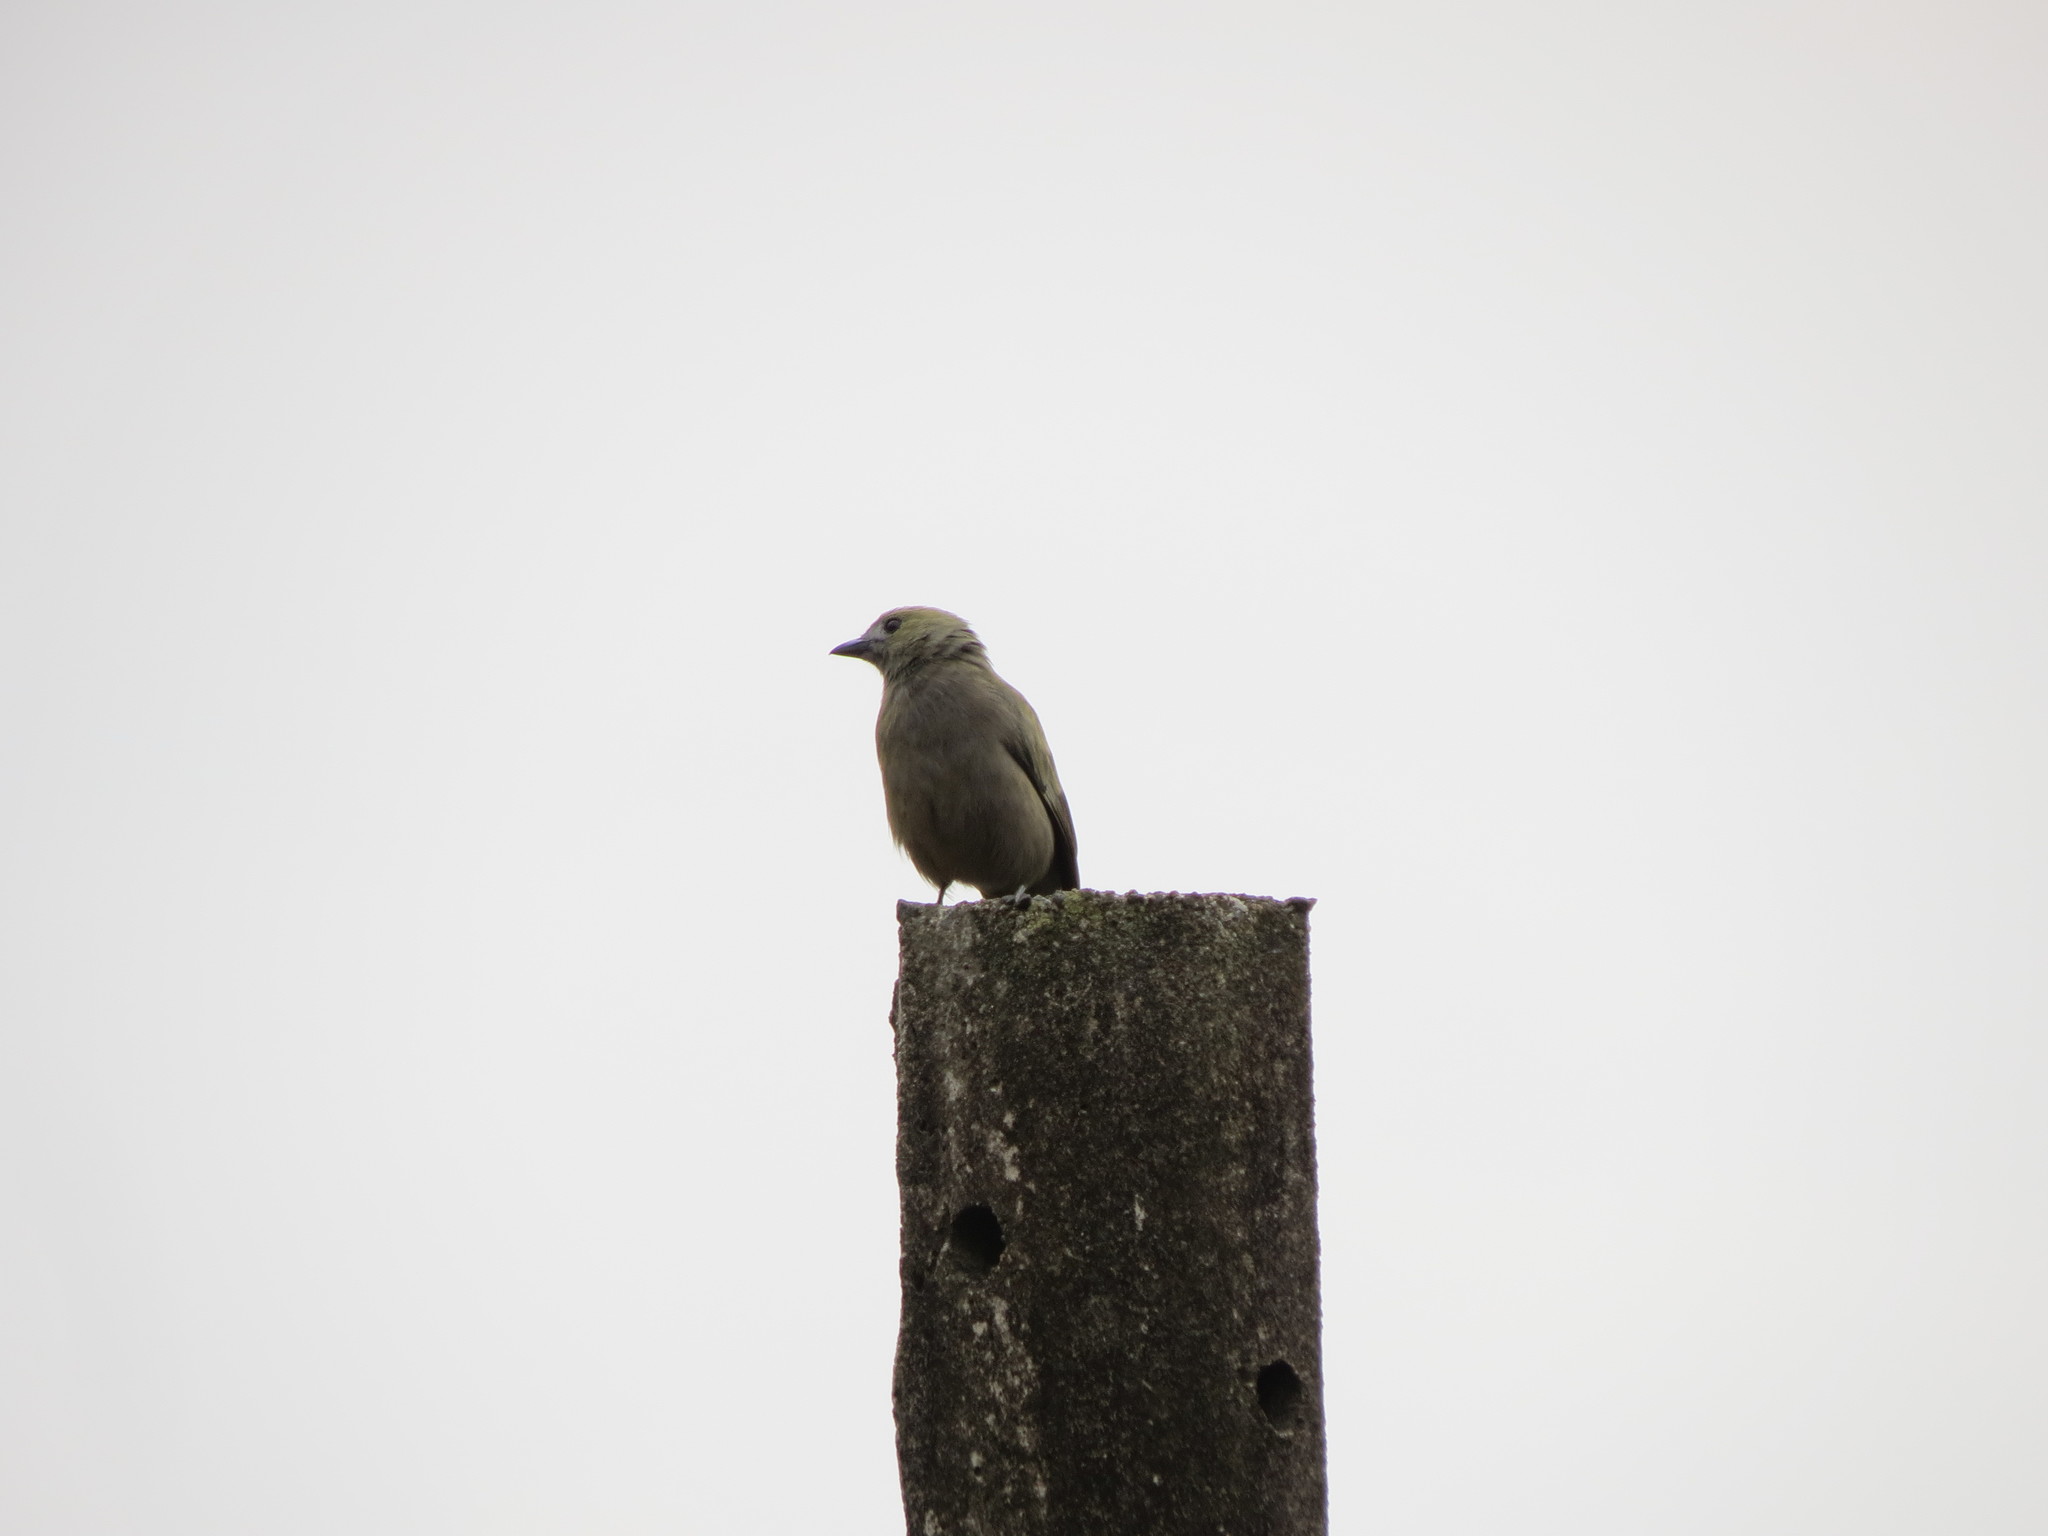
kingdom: Animalia
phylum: Chordata
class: Aves
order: Passeriformes
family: Thraupidae
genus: Thraupis
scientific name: Thraupis palmarum
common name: Palm tanager
